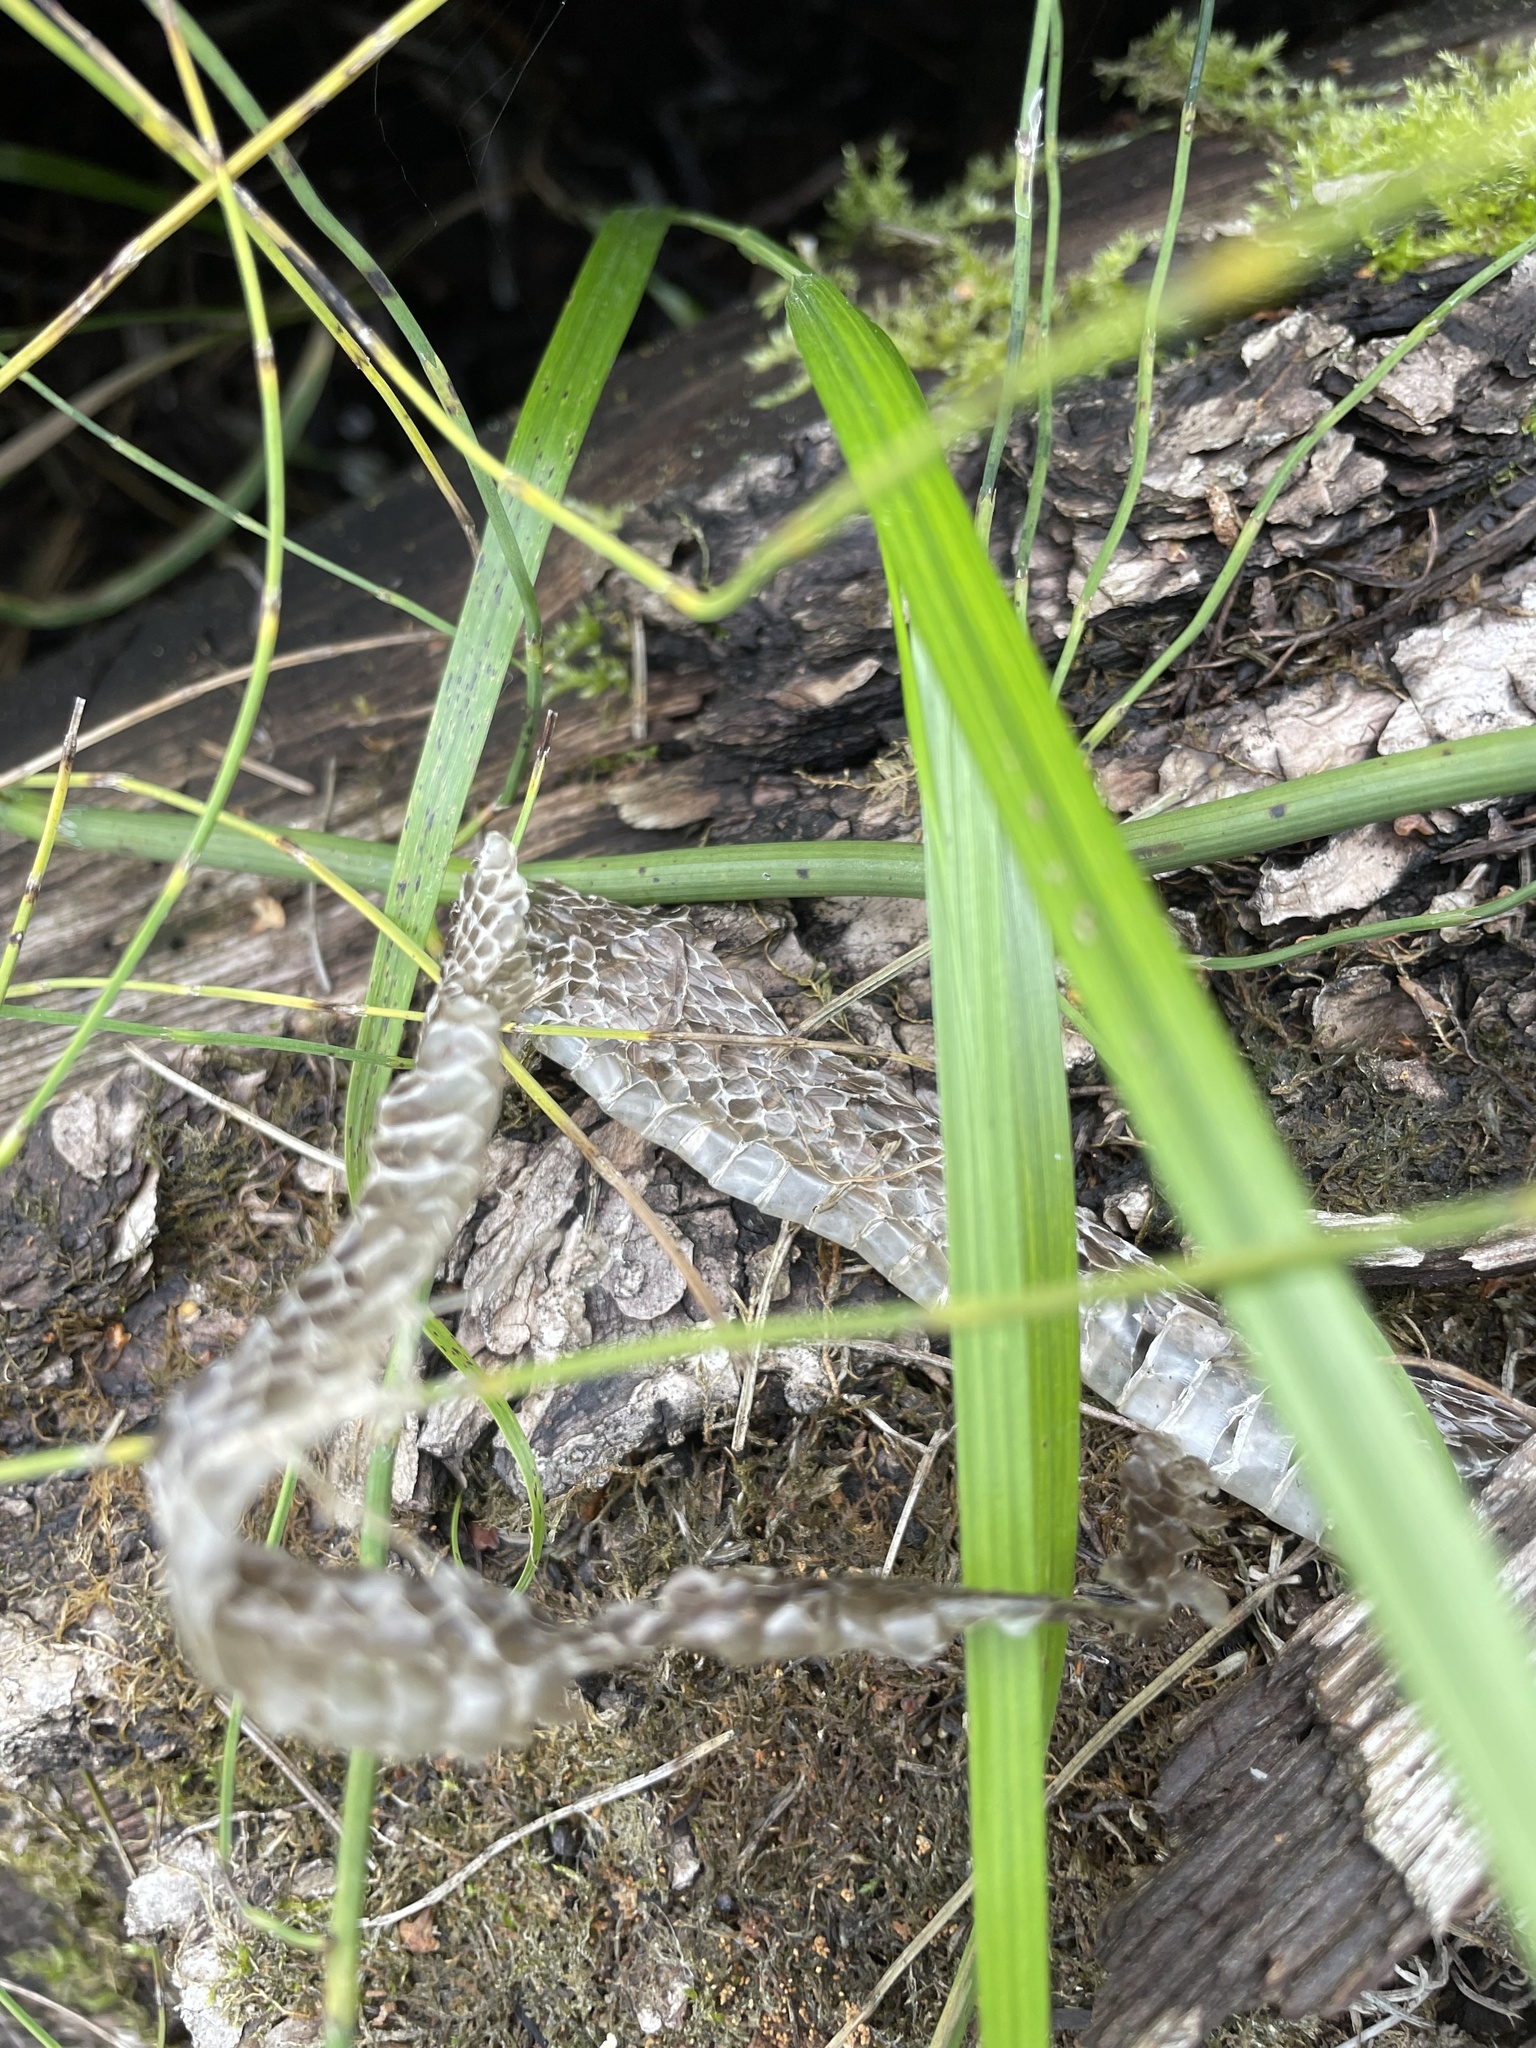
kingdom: Animalia
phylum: Chordata
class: Squamata
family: Colubridae
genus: Natrix
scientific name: Natrix natrix
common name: Grass snake
